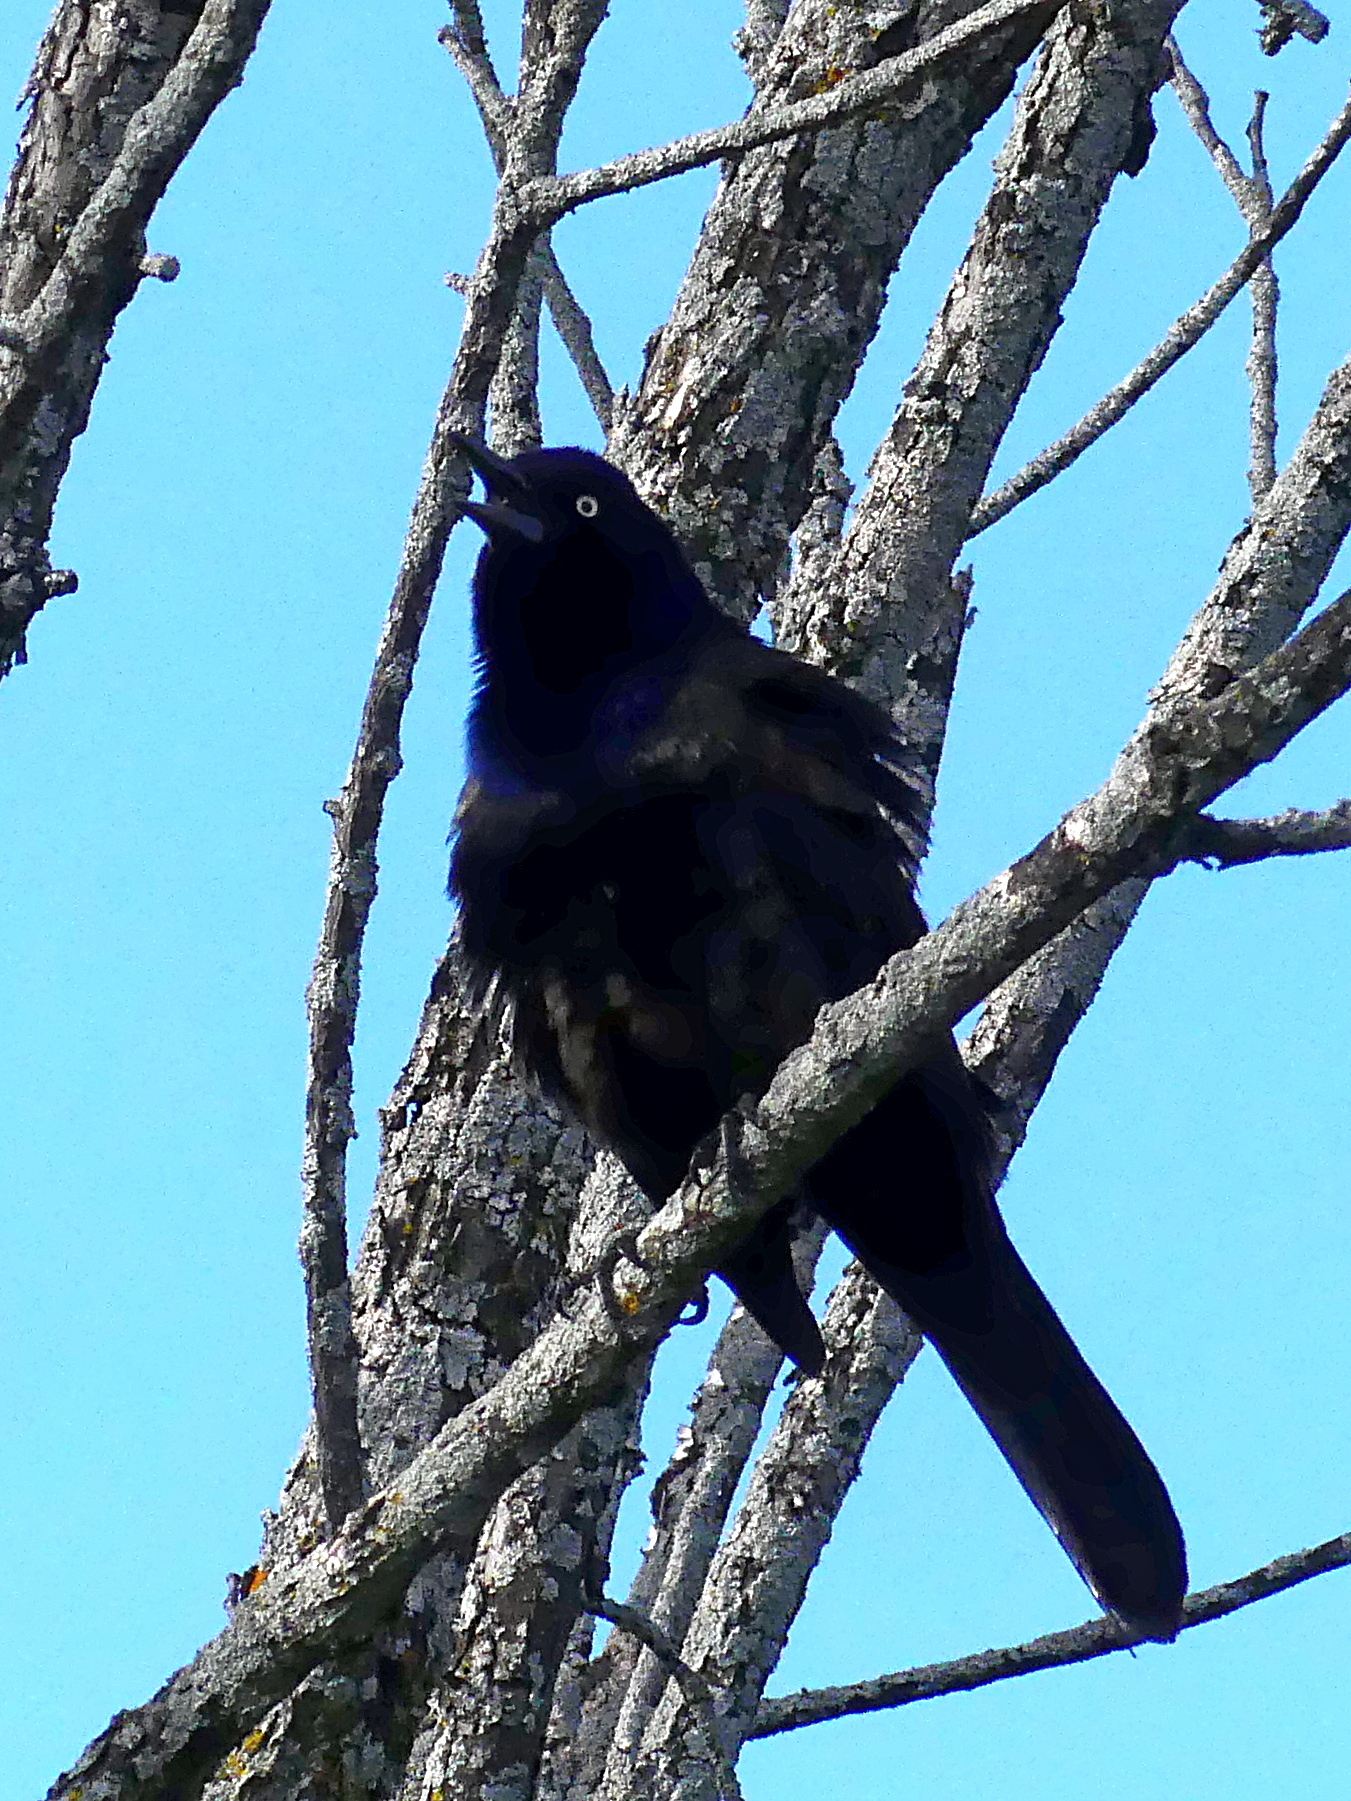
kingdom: Animalia
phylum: Chordata
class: Aves
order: Passeriformes
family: Icteridae
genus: Quiscalus
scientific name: Quiscalus quiscula
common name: Common grackle
